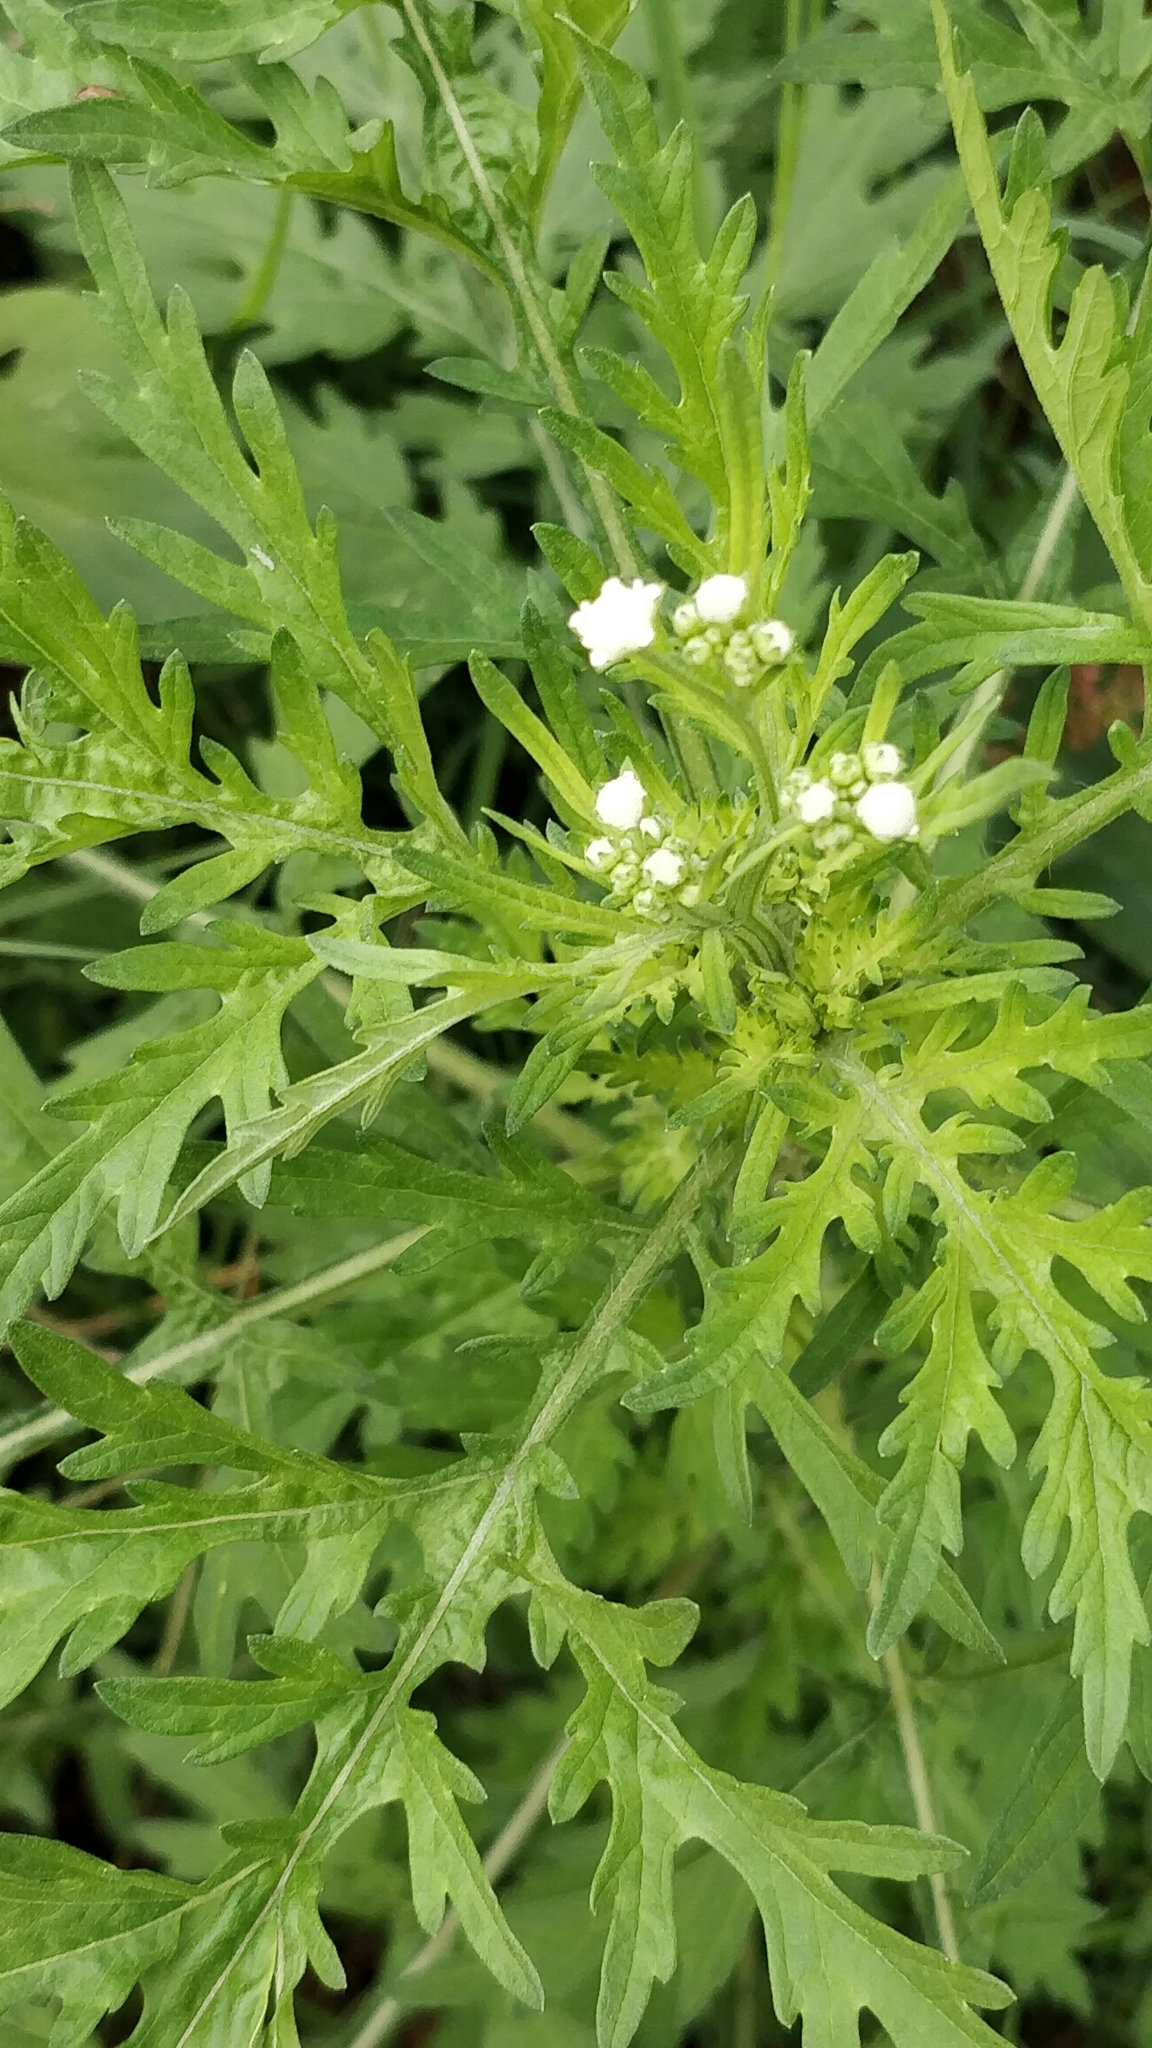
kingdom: Plantae
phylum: Tracheophyta
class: Magnoliopsida
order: Asterales
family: Asteraceae
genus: Parthenium
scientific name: Parthenium hysterophorus
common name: Santa maria feverfew
